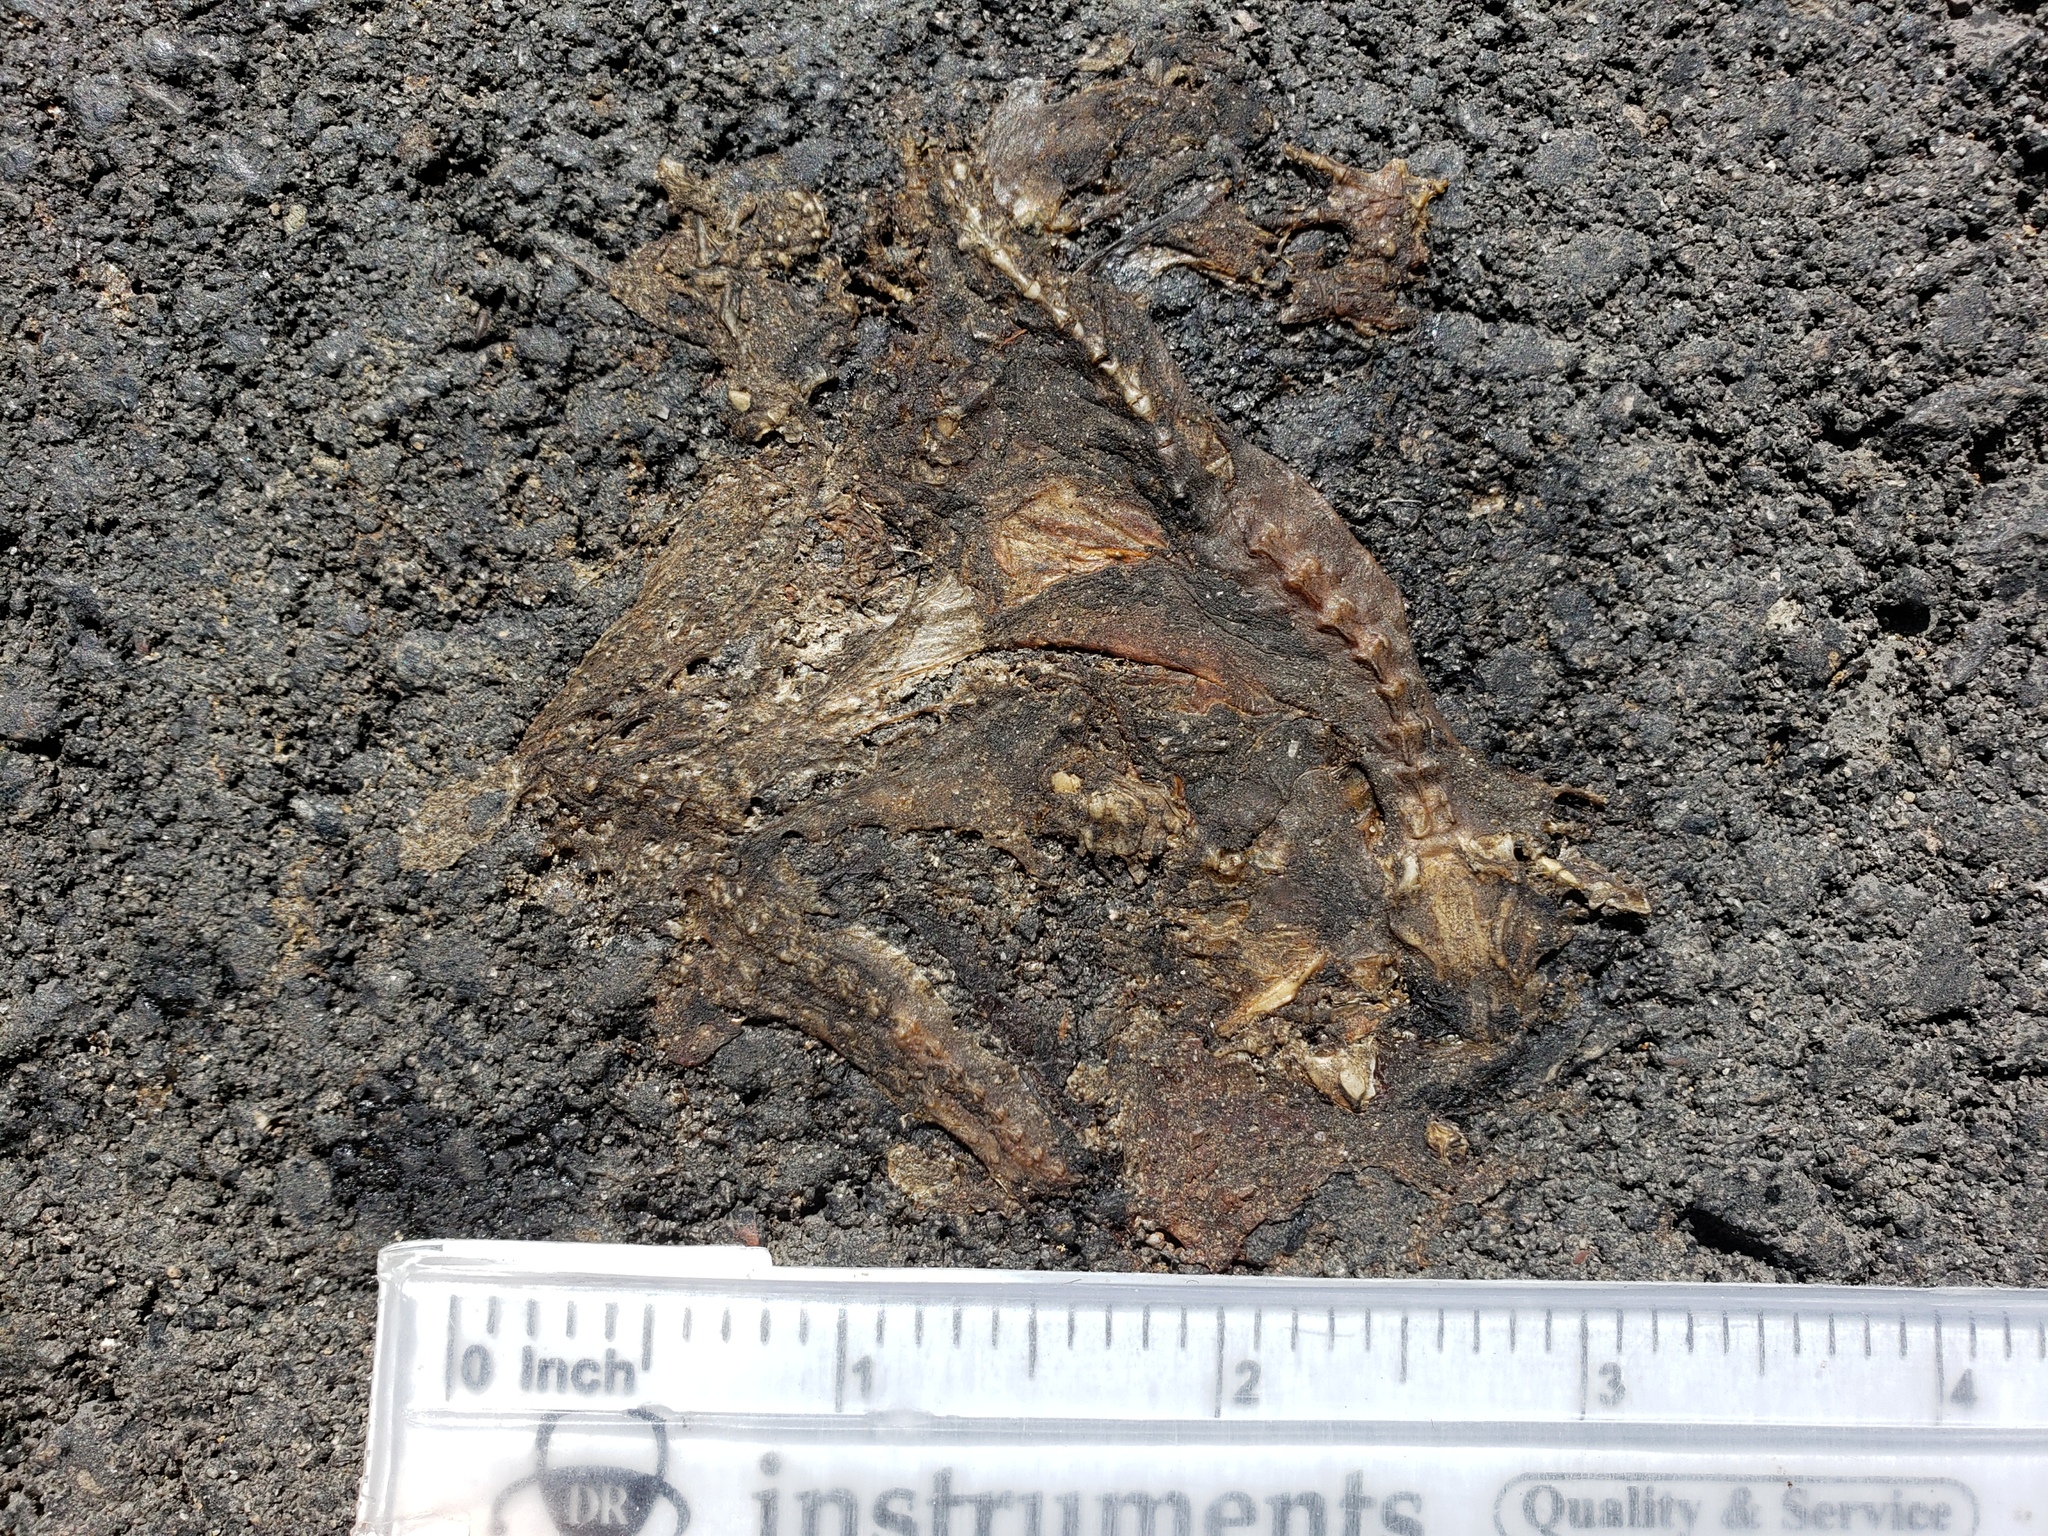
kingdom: Animalia
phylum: Chordata
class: Amphibia
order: Caudata
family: Salamandridae
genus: Taricha
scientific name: Taricha
